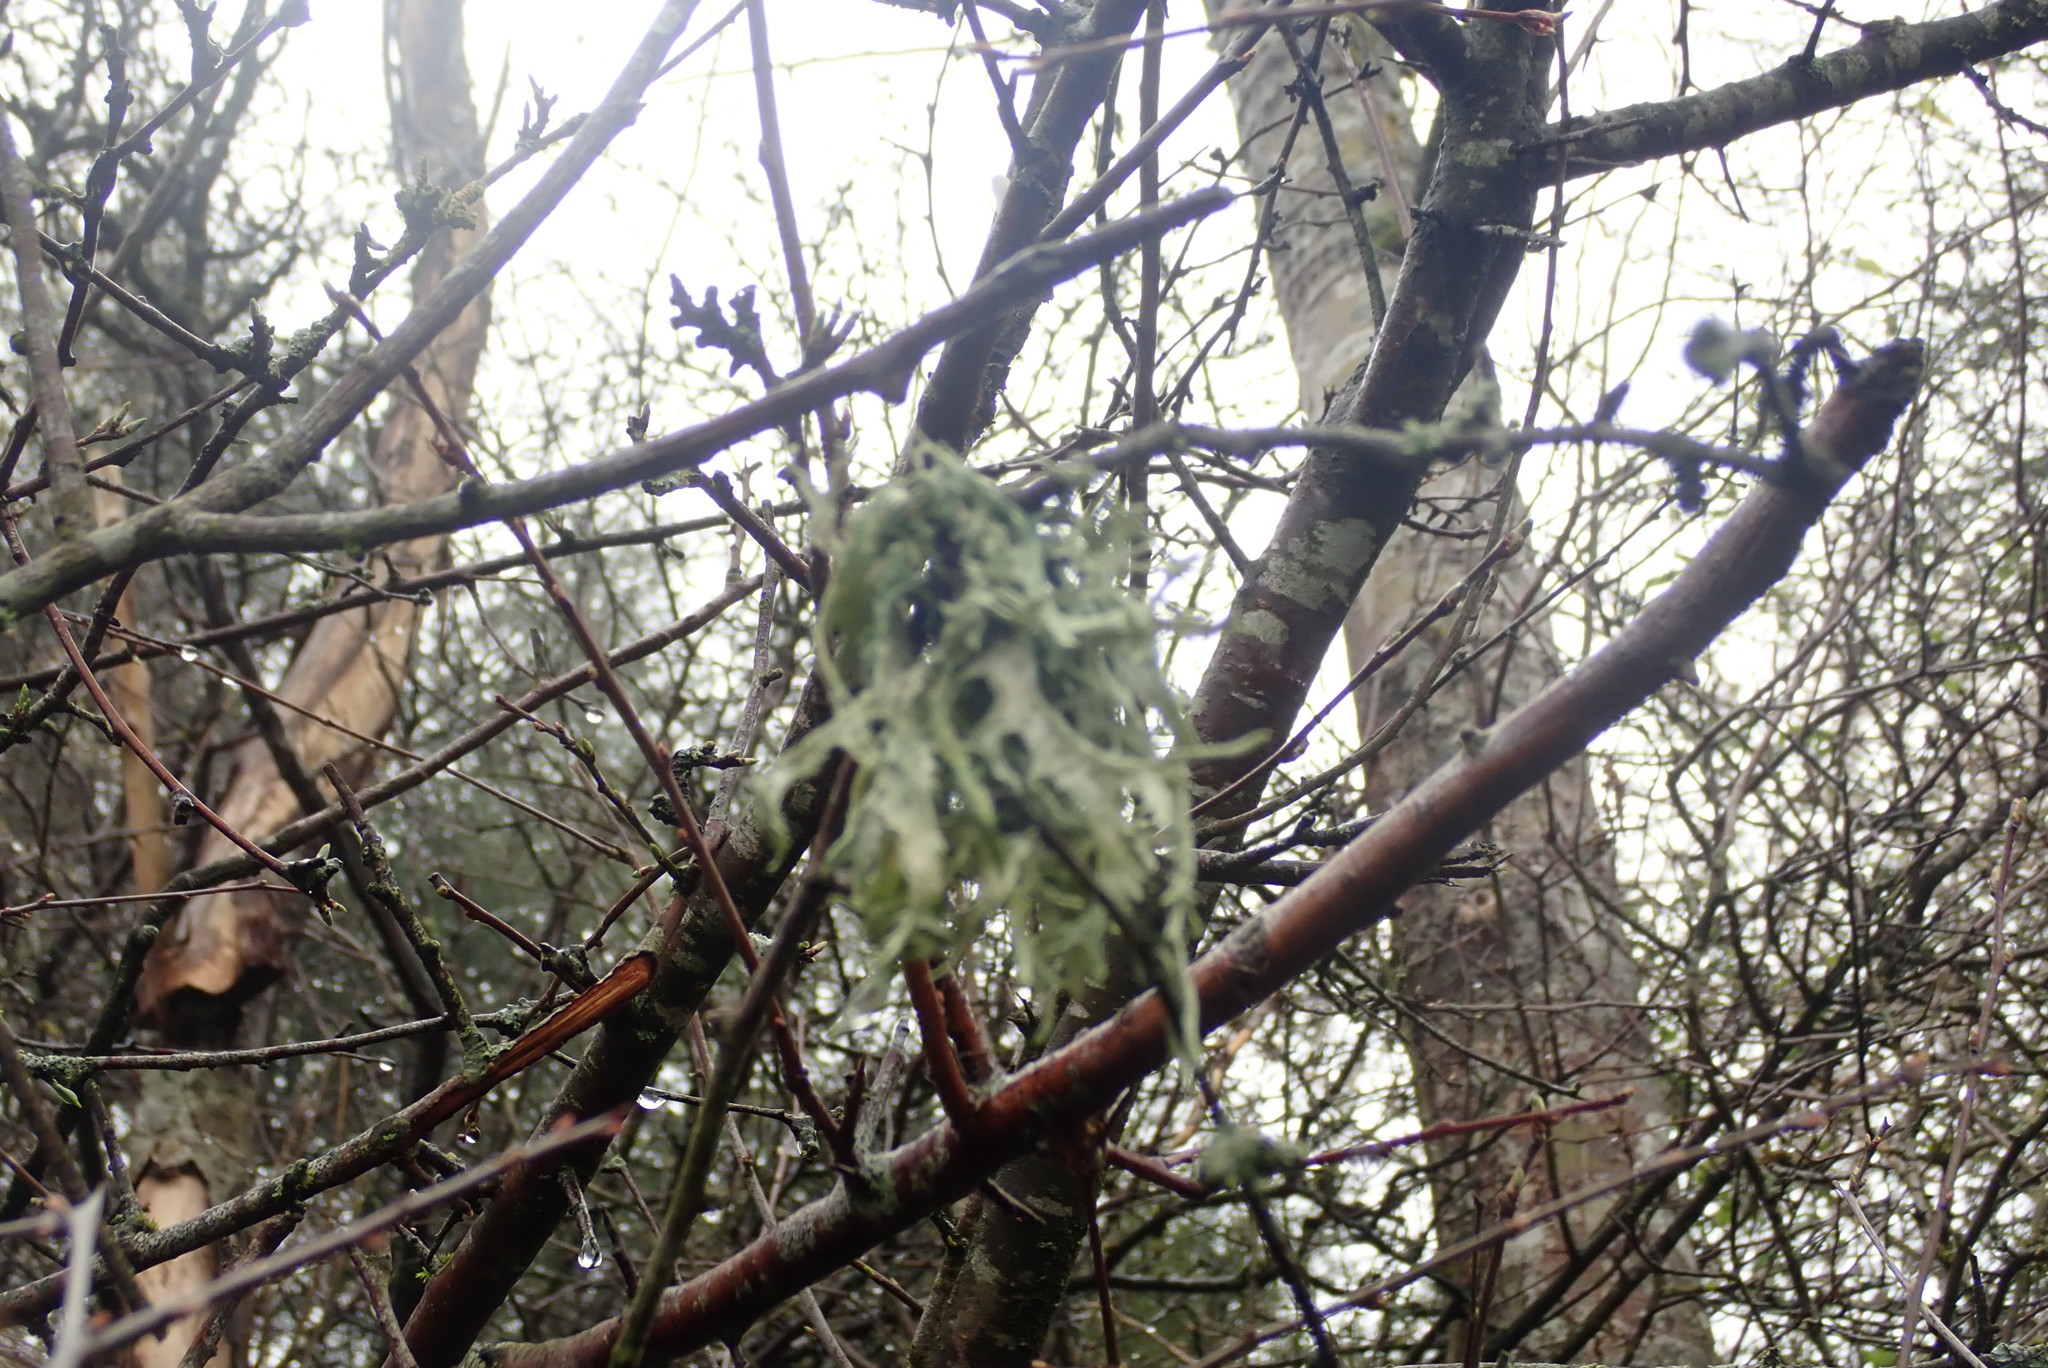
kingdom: Fungi
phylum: Ascomycota
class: Lecanoromycetes
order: Lecanorales
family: Parmeliaceae
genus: Evernia
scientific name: Evernia prunastri
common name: Oak moss
